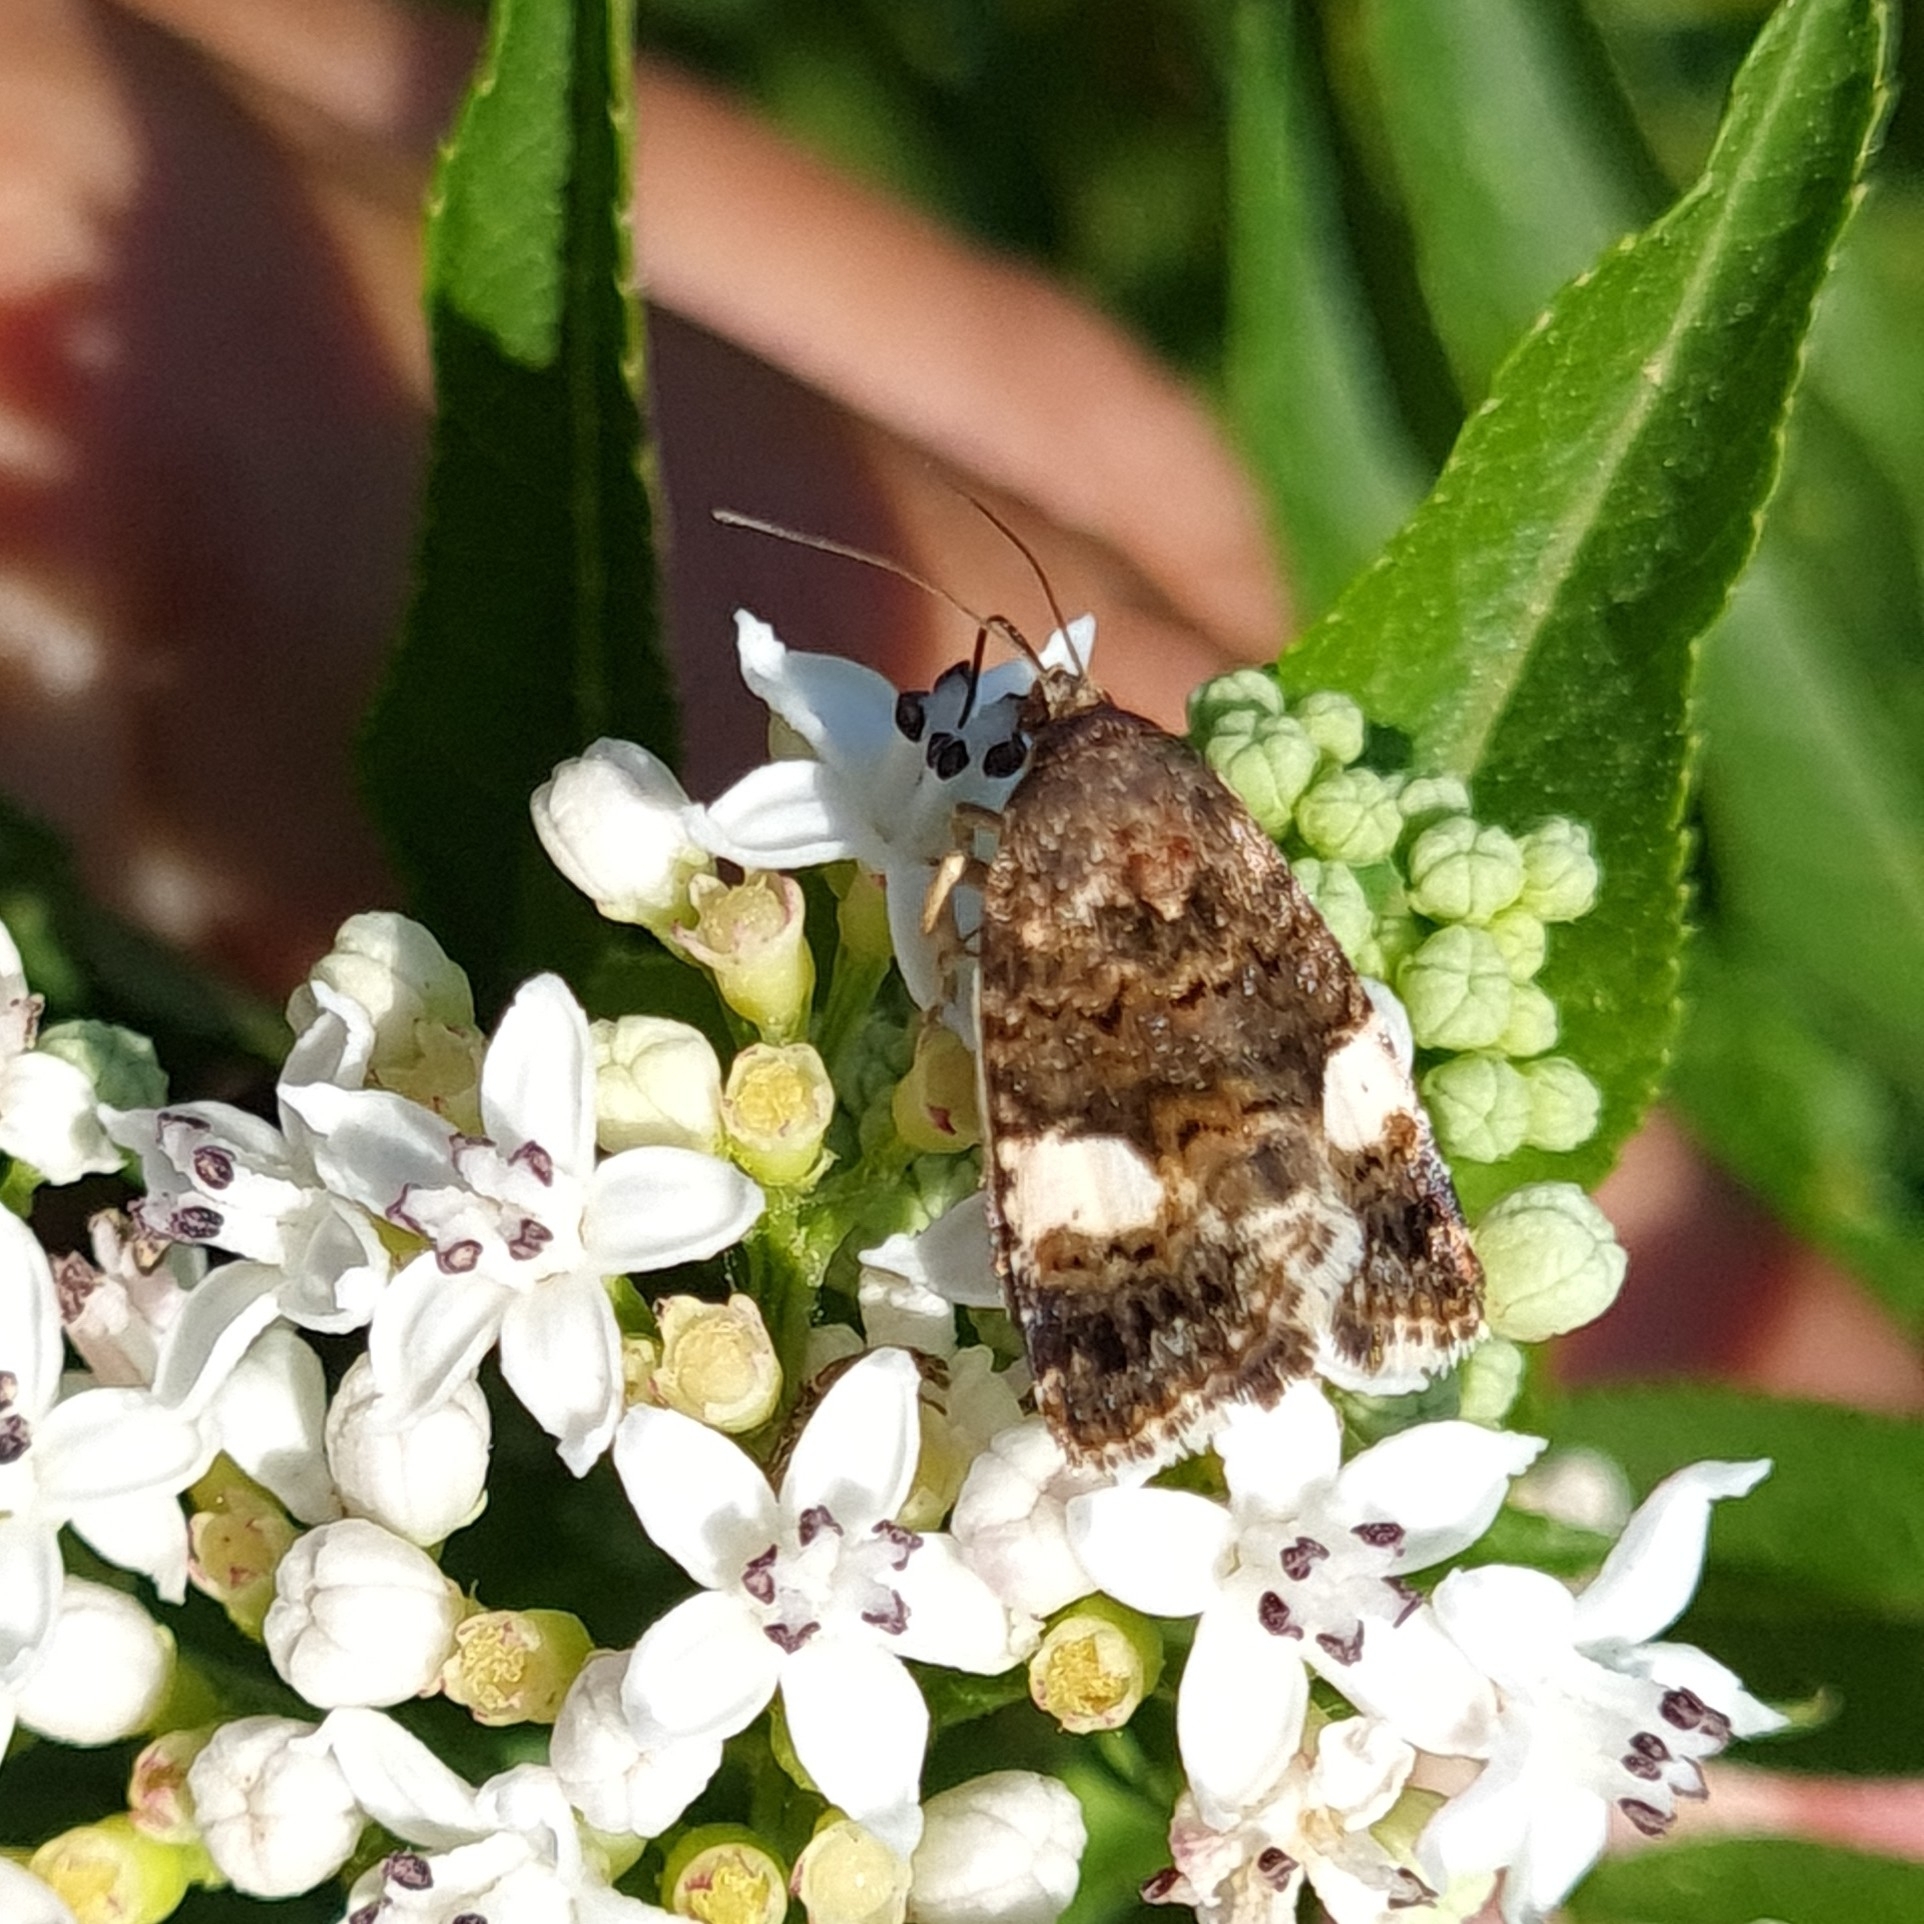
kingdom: Animalia
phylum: Arthropoda
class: Insecta
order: Lepidoptera
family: Erebidae
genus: Tyta
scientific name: Tyta luctuosa
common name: Four-spotted
